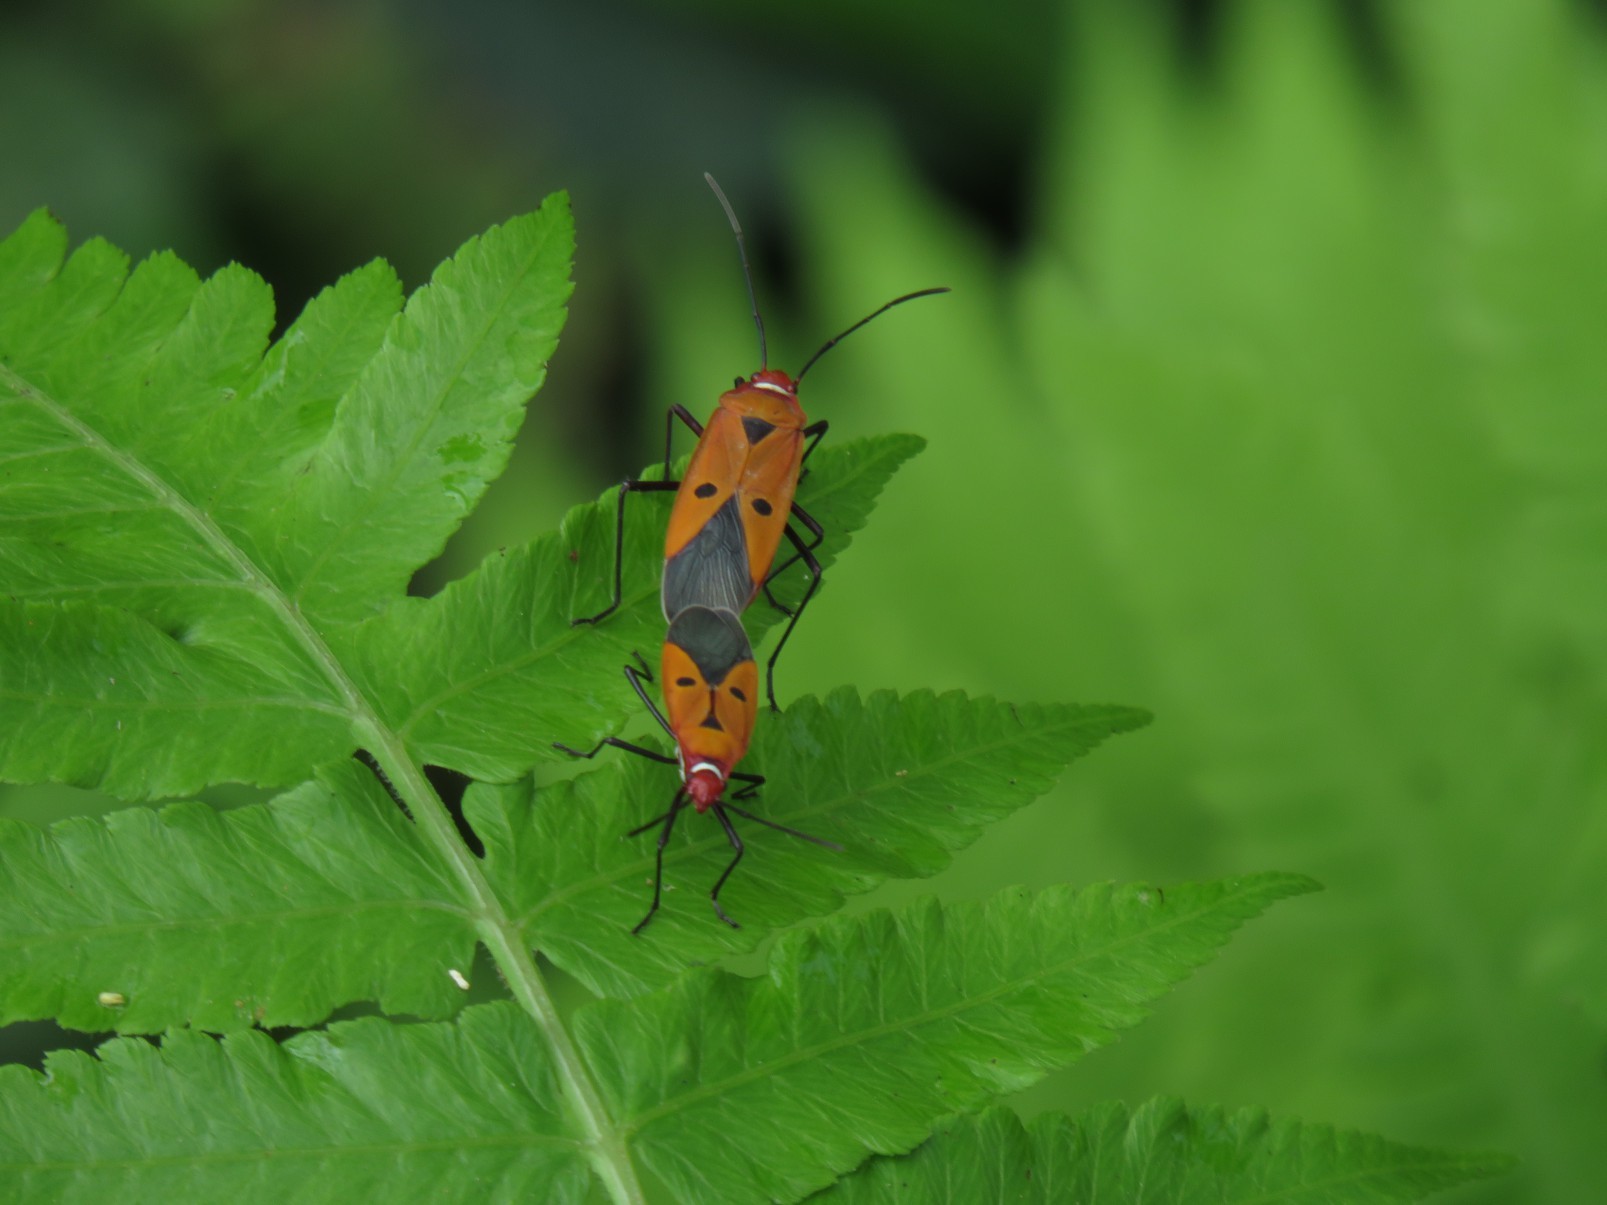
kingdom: Animalia
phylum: Arthropoda
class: Insecta
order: Hemiptera
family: Pyrrhocoridae
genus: Dysdercus
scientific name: Dysdercus cingulatus
